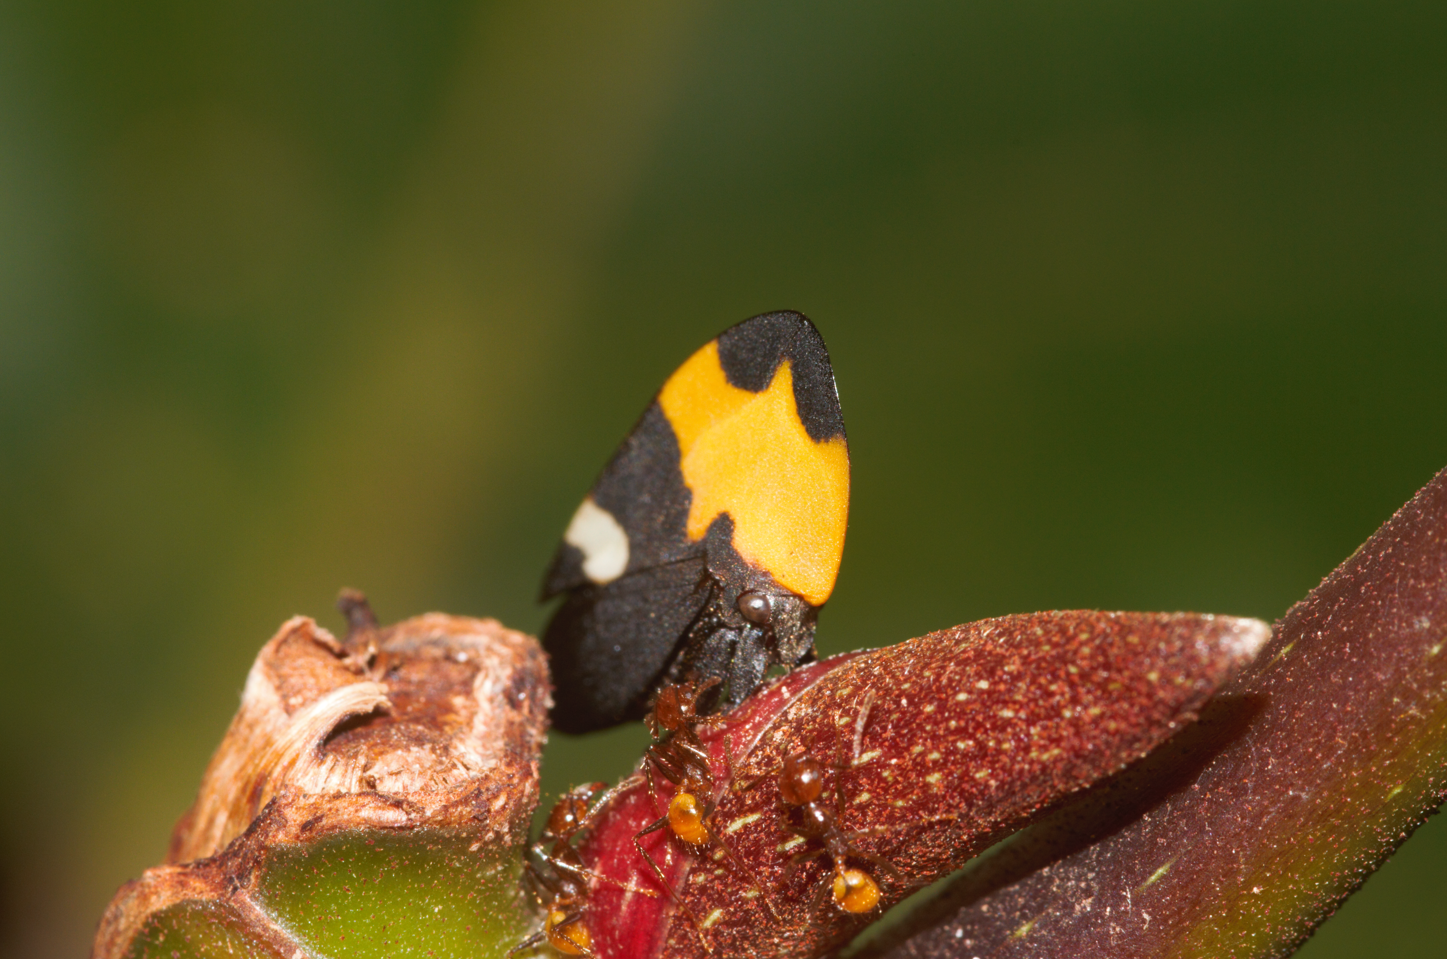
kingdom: Animalia
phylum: Arthropoda
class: Insecta
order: Hemiptera
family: Membracidae
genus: Phyllotropis
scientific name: Phyllotropis fasciata
